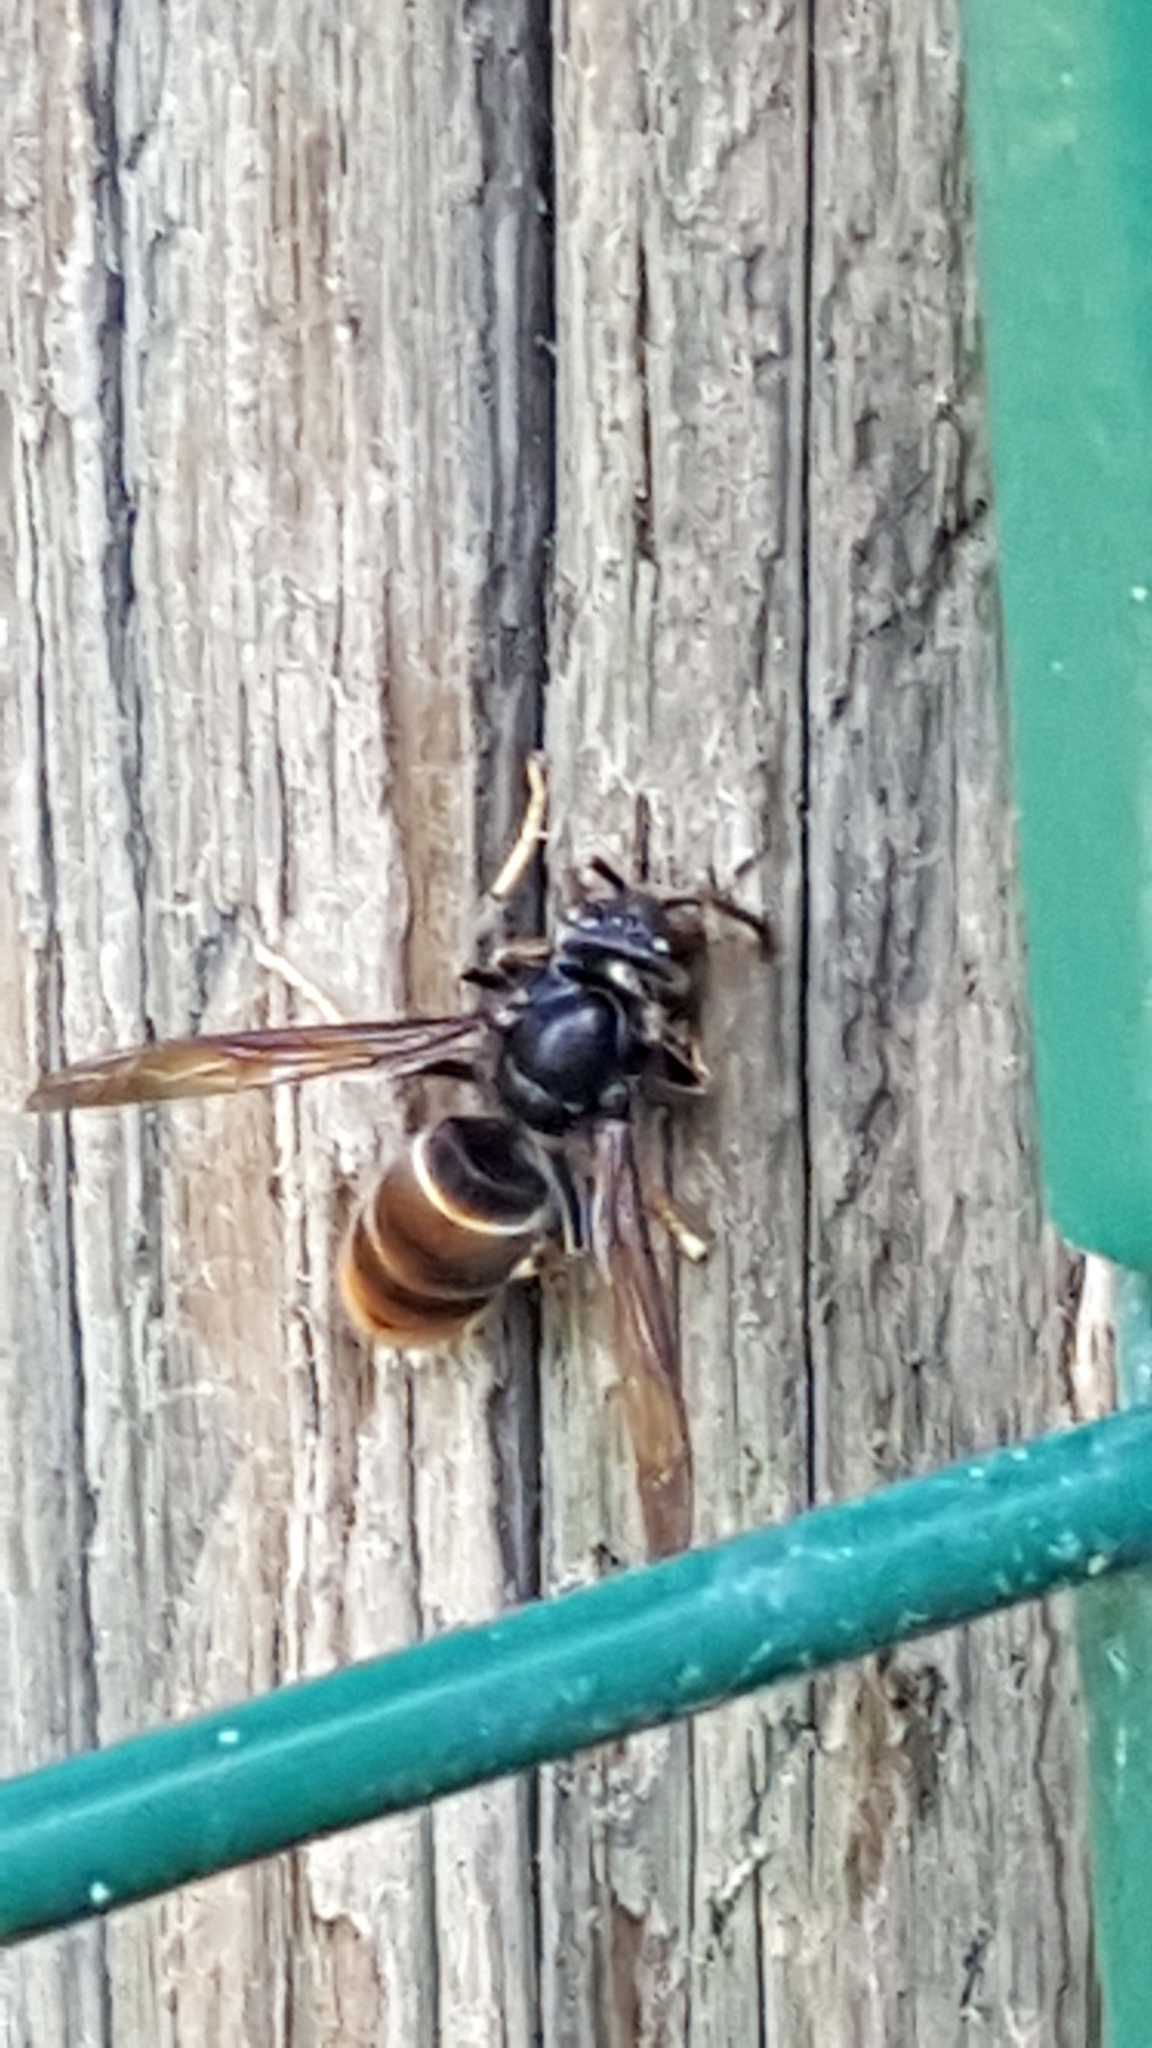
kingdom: Animalia
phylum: Arthropoda
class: Insecta
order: Hymenoptera
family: Vespidae
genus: Vespa
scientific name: Vespa velutina
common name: Asian hornet
